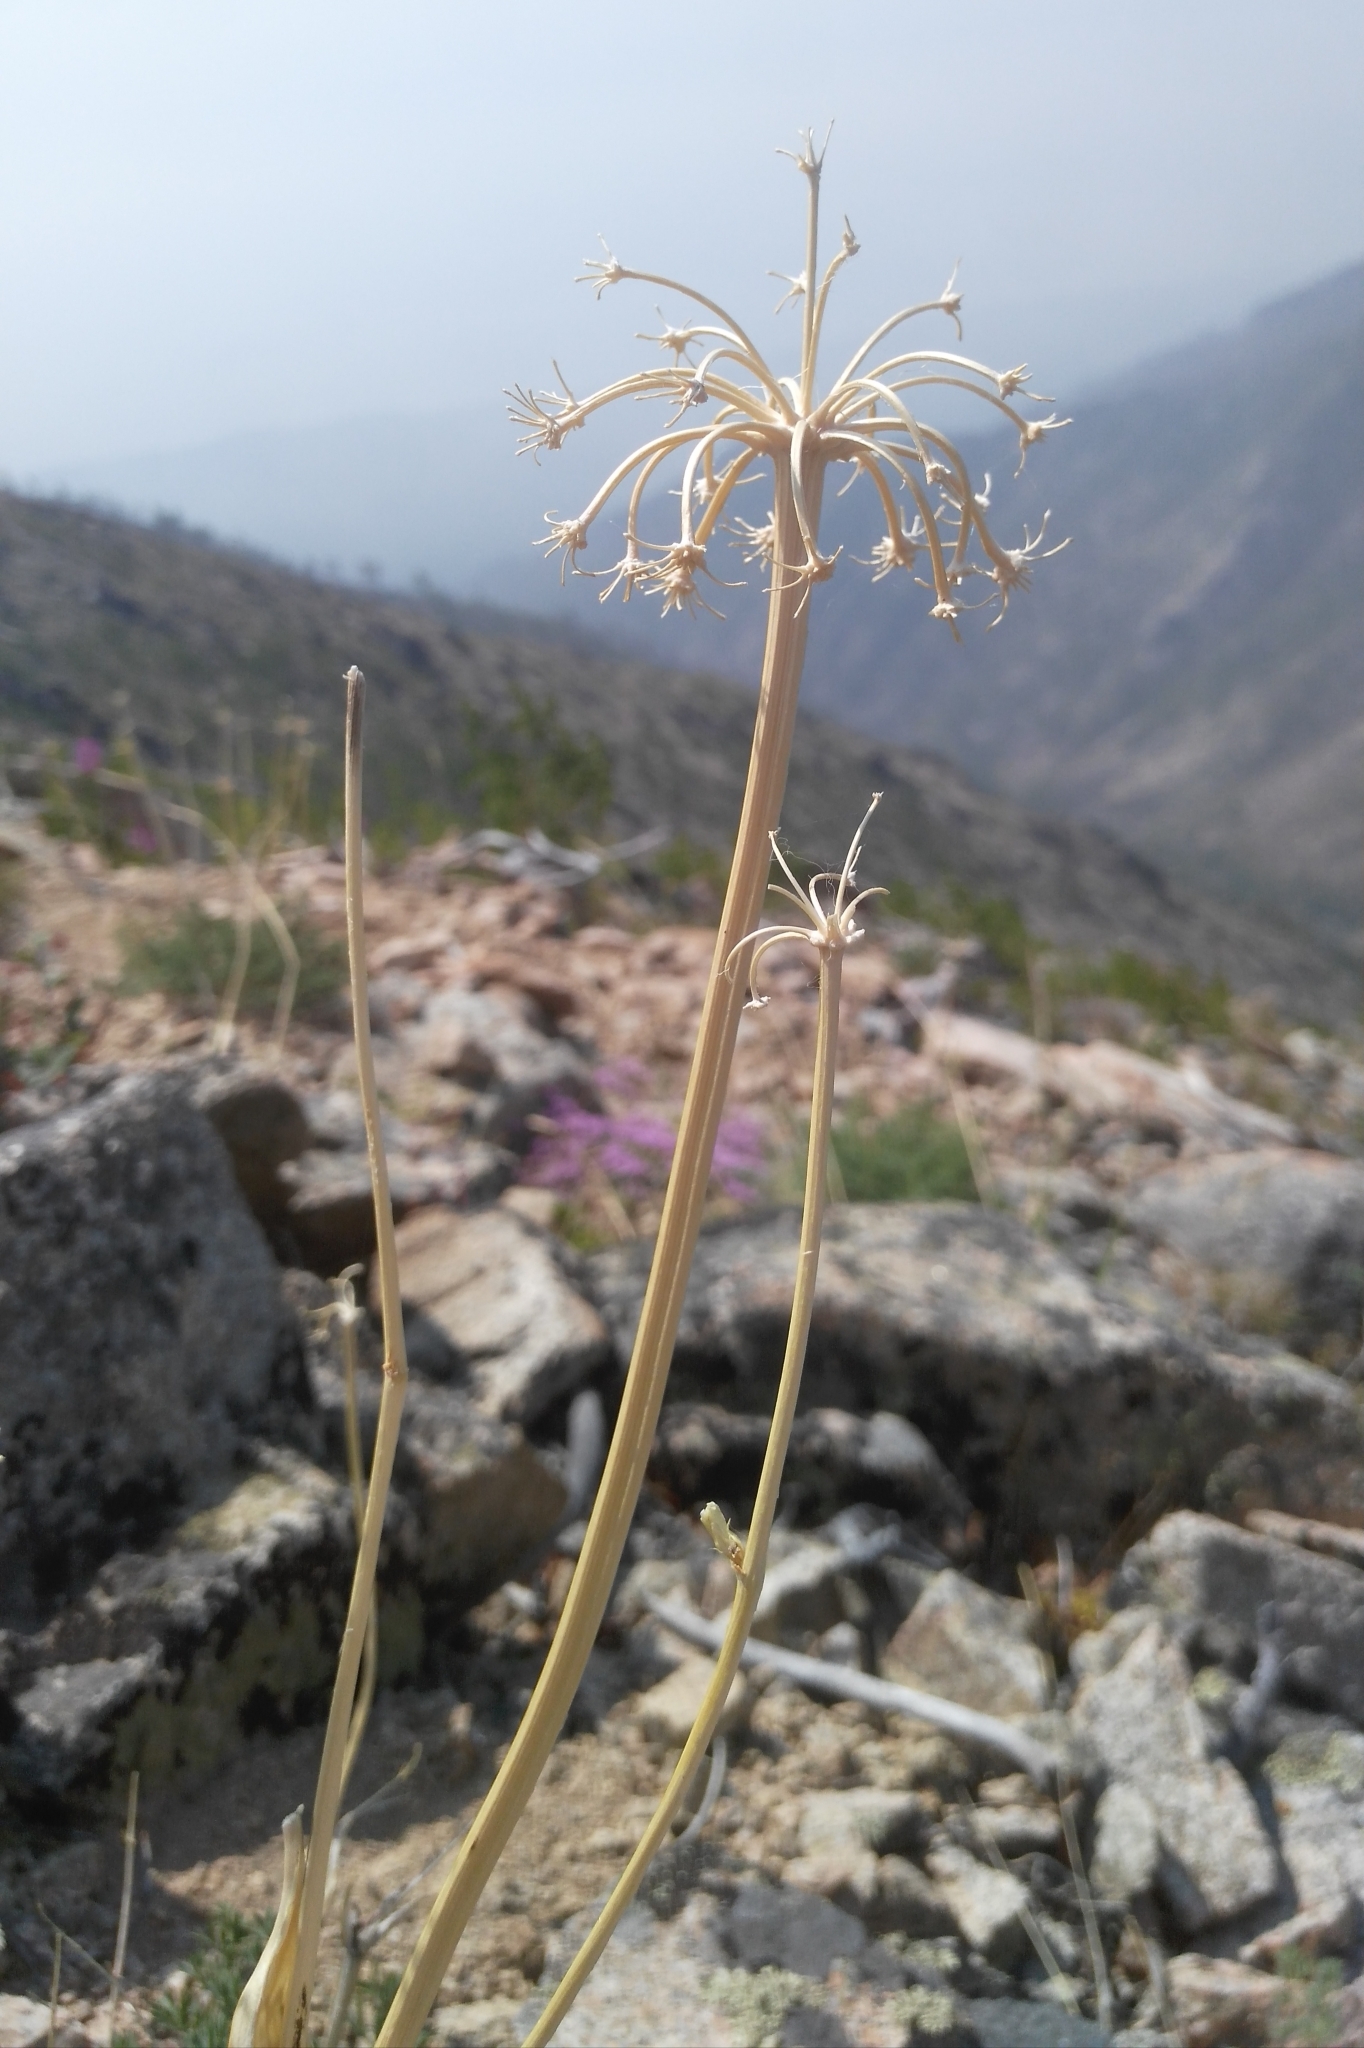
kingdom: Plantae
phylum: Tracheophyta
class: Magnoliopsida
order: Apiales
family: Apiaceae
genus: Phlojodicarpus
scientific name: Phlojodicarpus sibiricus
